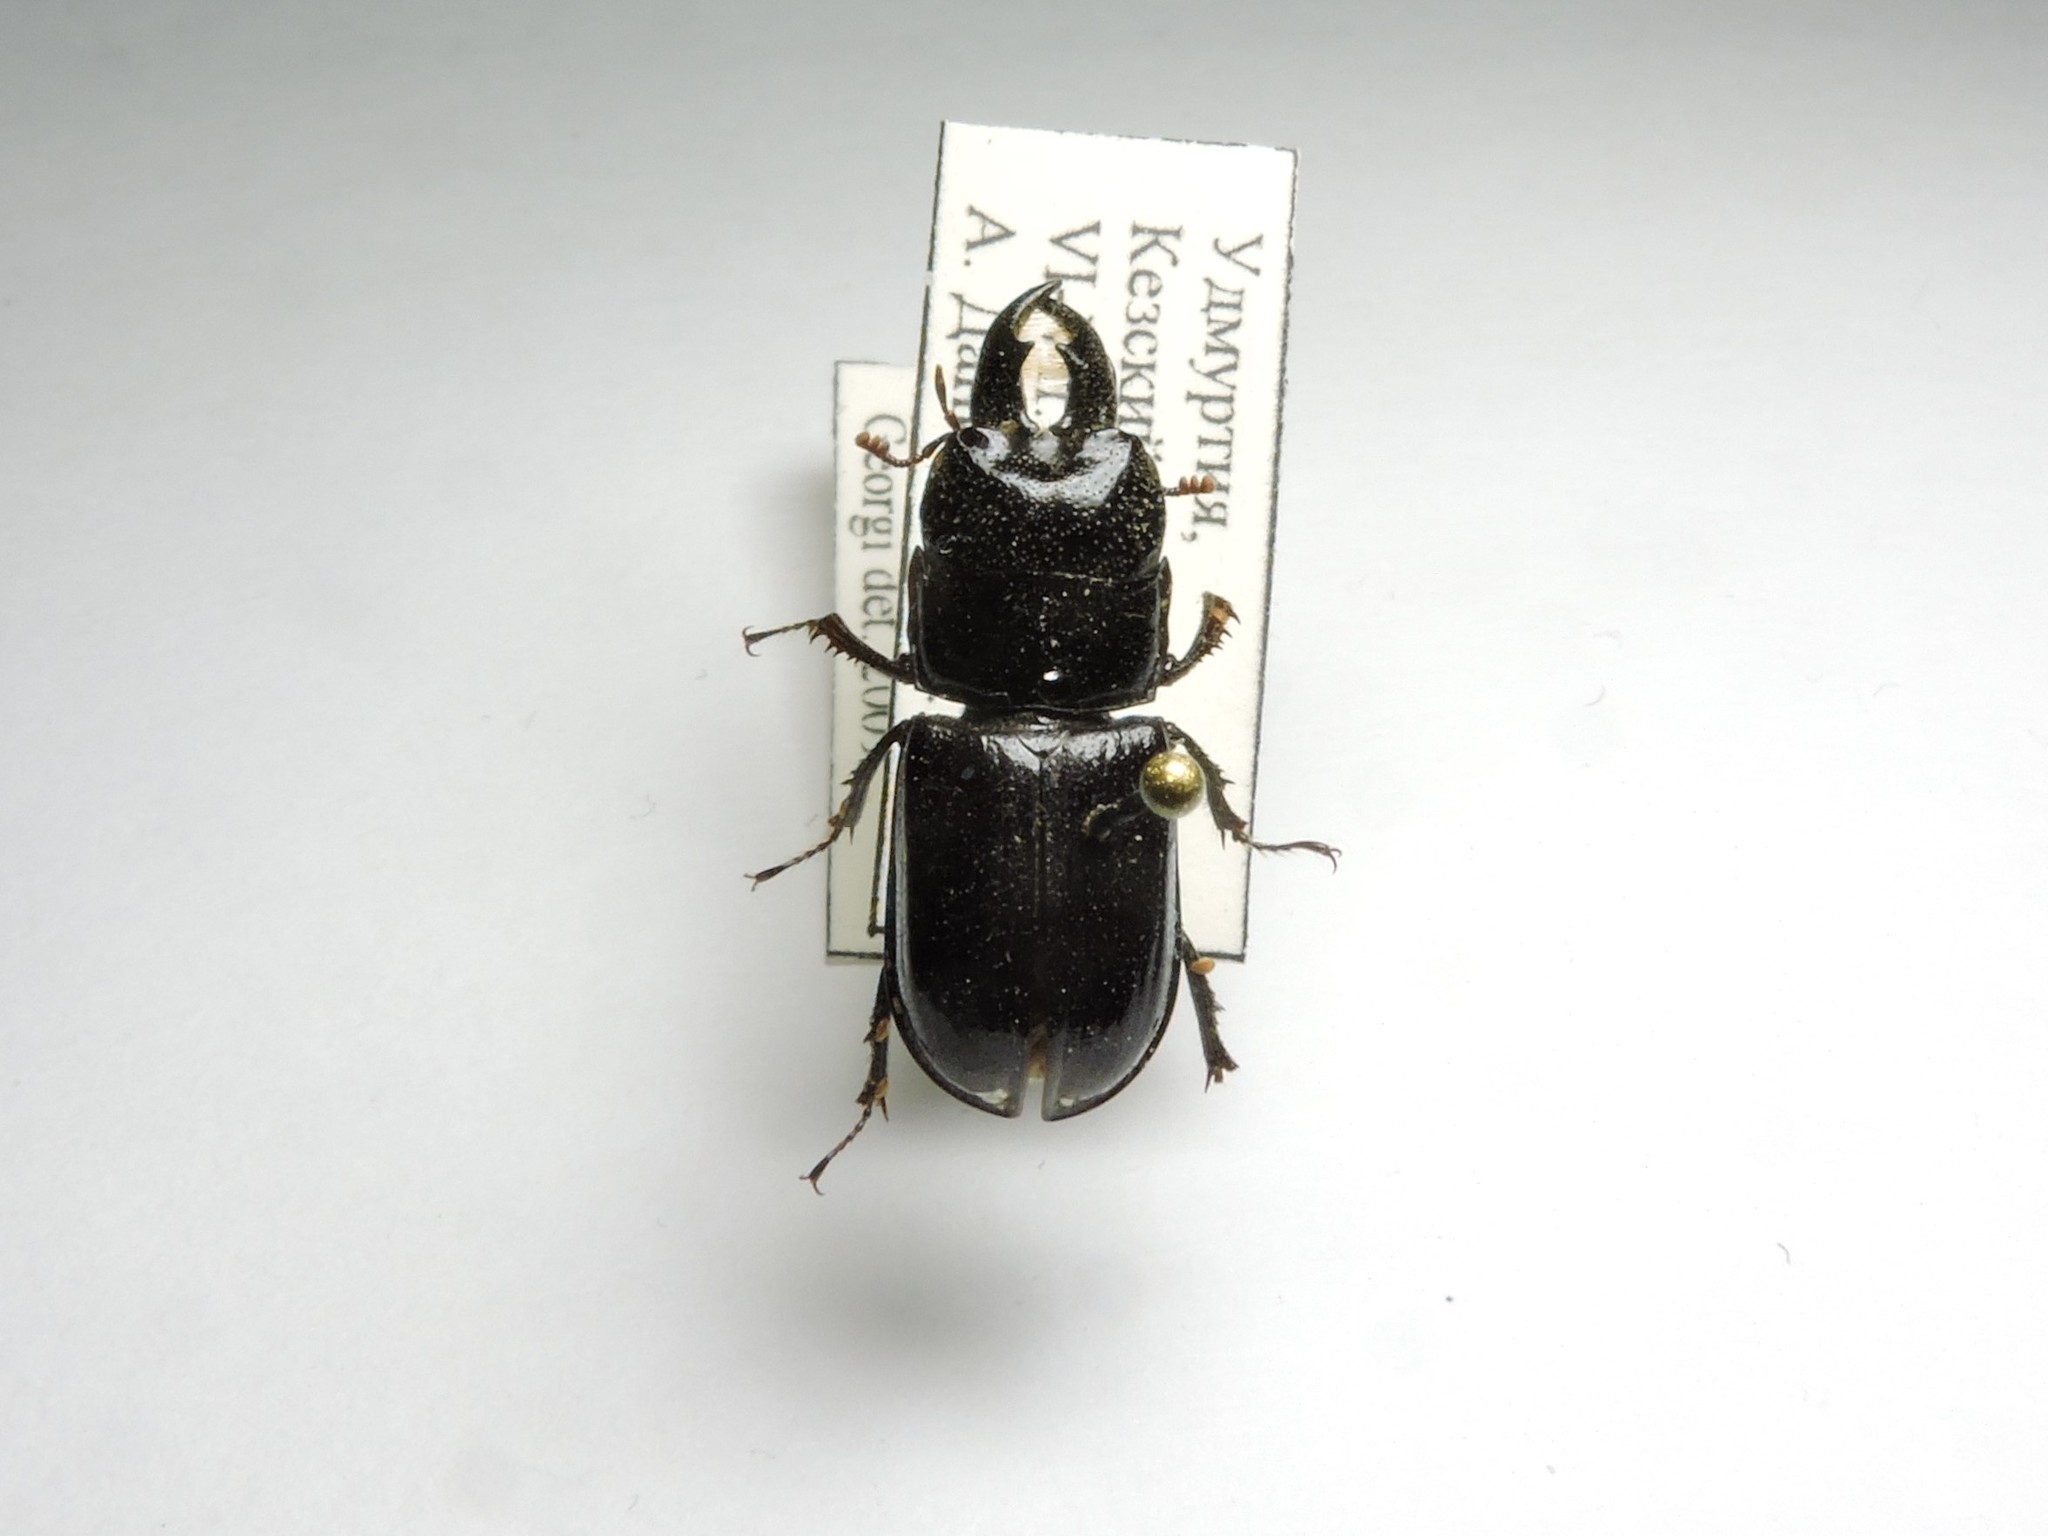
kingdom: Animalia
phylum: Arthropoda
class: Insecta
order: Coleoptera
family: Lucanidae
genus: Ceruchus
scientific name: Ceruchus chrysomelinus
